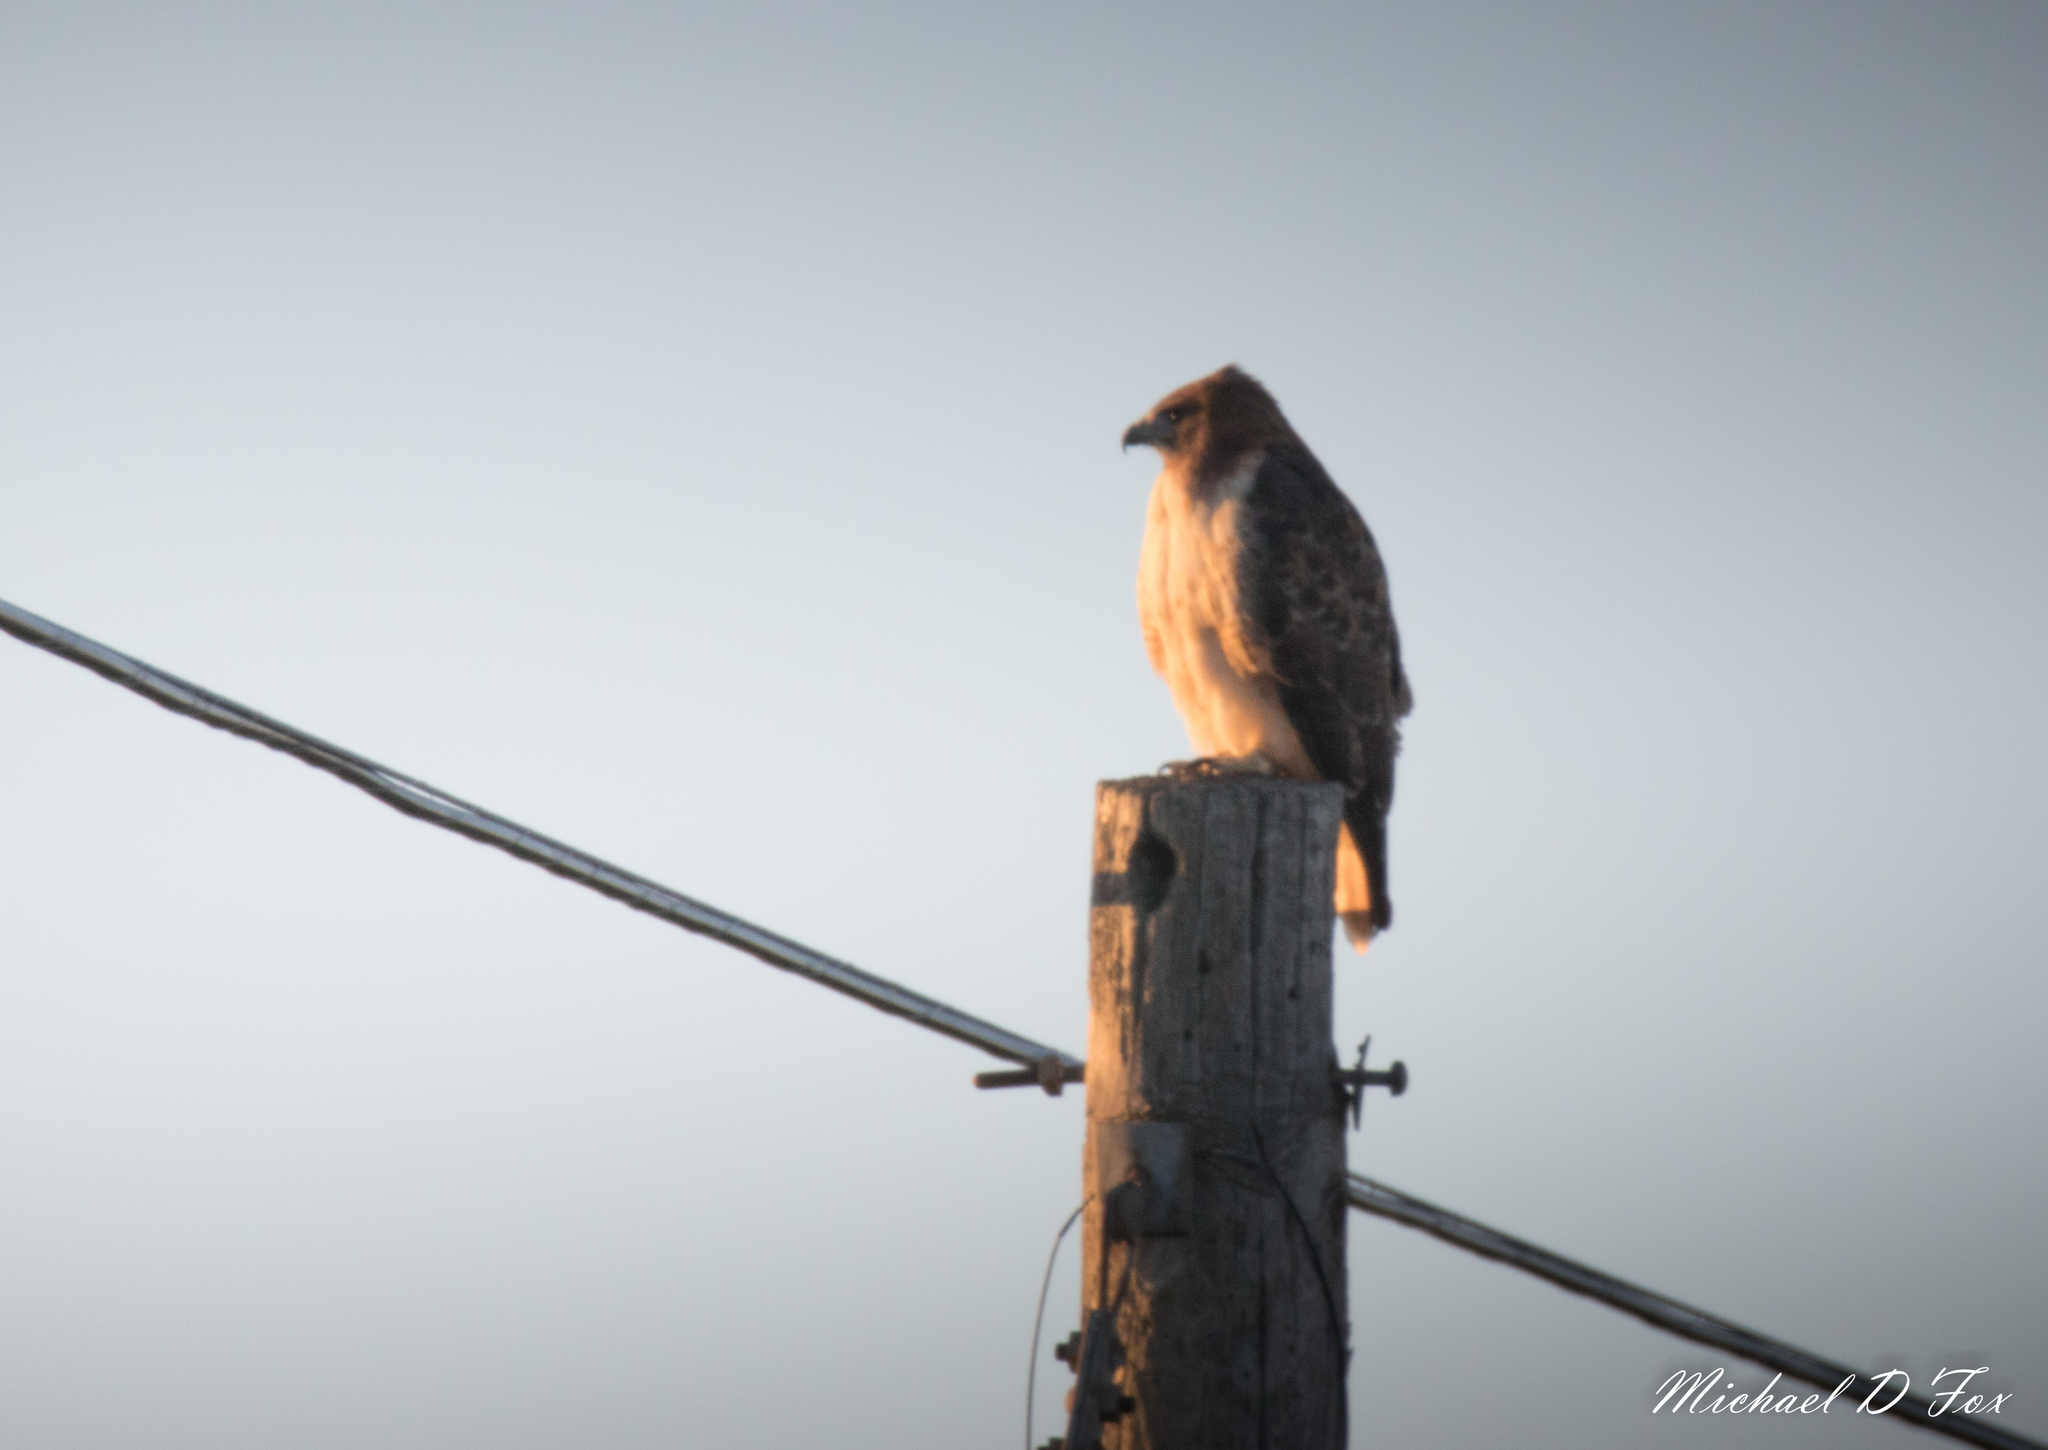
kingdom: Animalia
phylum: Chordata
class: Aves
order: Accipitriformes
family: Accipitridae
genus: Buteo
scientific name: Buteo jamaicensis
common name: Red-tailed hawk
